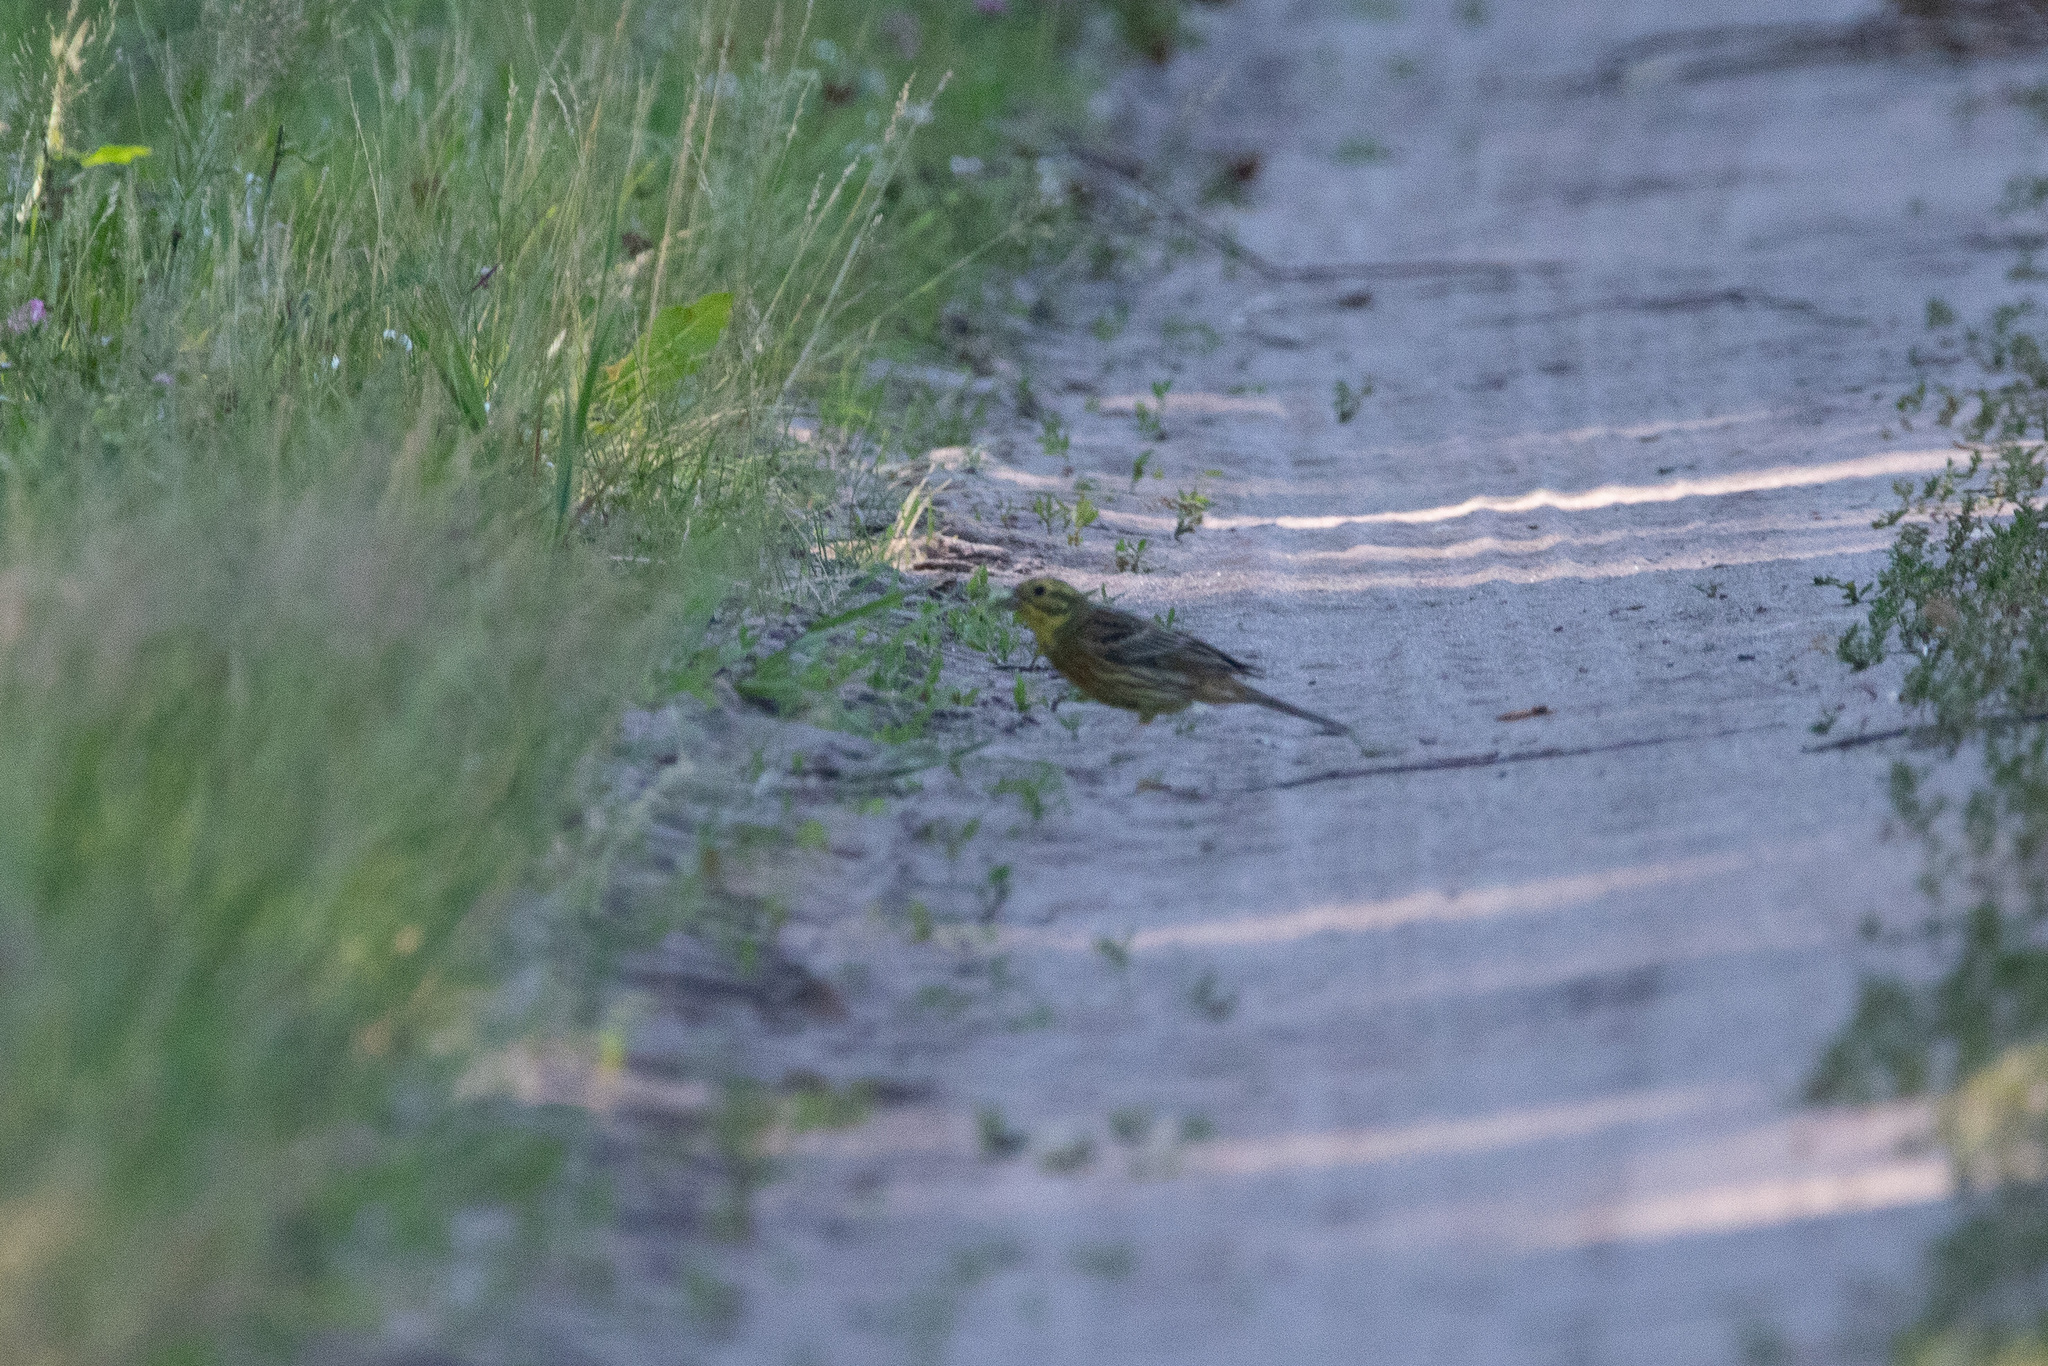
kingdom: Animalia
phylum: Chordata
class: Aves
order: Passeriformes
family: Emberizidae
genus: Emberiza
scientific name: Emberiza citrinella
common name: Yellowhammer
